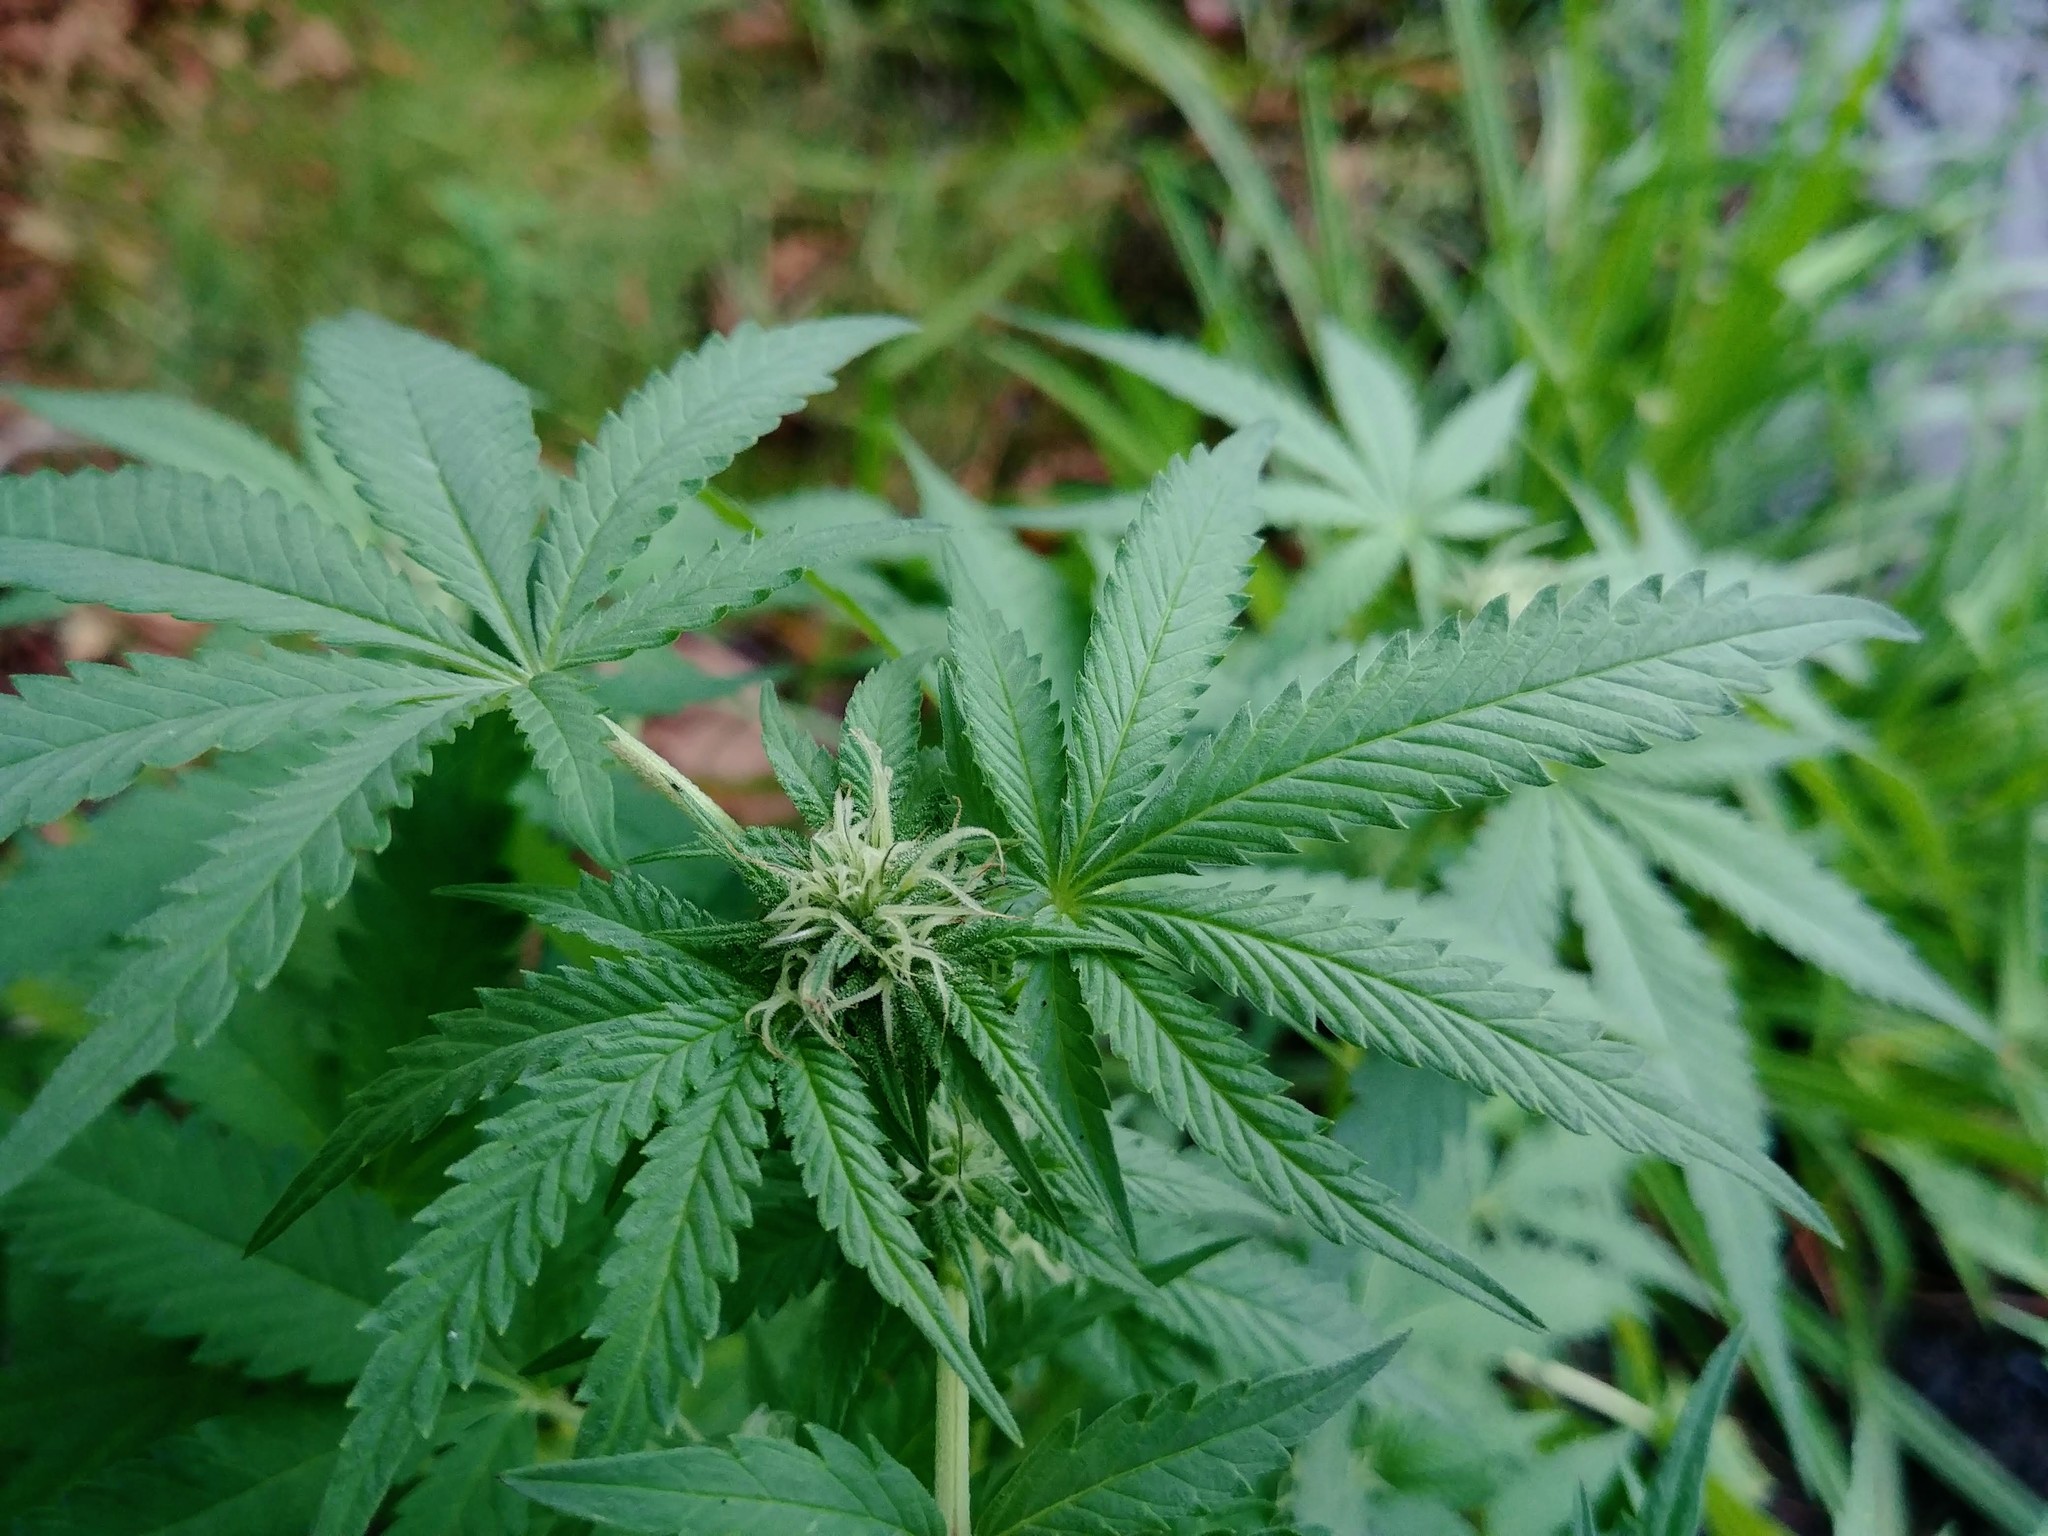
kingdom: Plantae
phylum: Tracheophyta
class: Magnoliopsida
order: Rosales
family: Cannabaceae
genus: Cannabis
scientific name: Cannabis sativa
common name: Hemp
